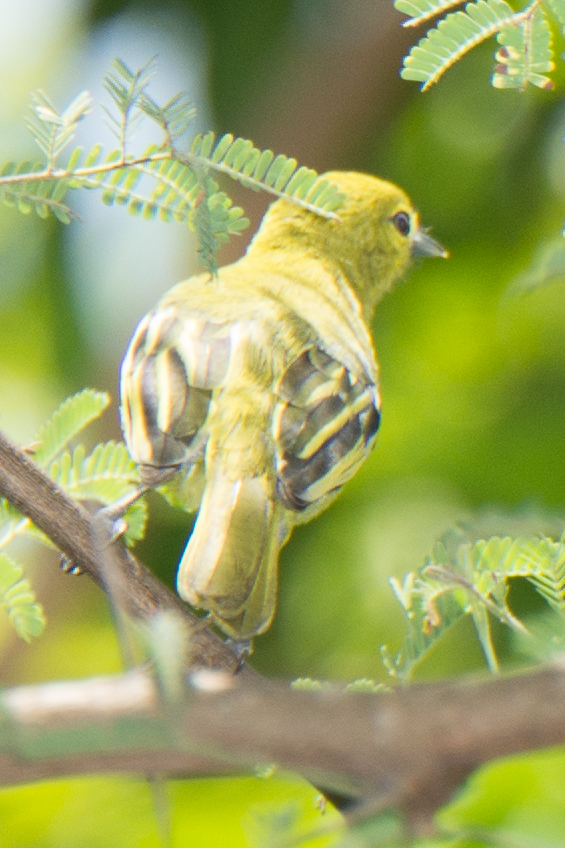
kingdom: Animalia
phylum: Chordata
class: Aves
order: Passeriformes
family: Aegithinidae
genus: Aegithina
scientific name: Aegithina tiphia
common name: Common iora
